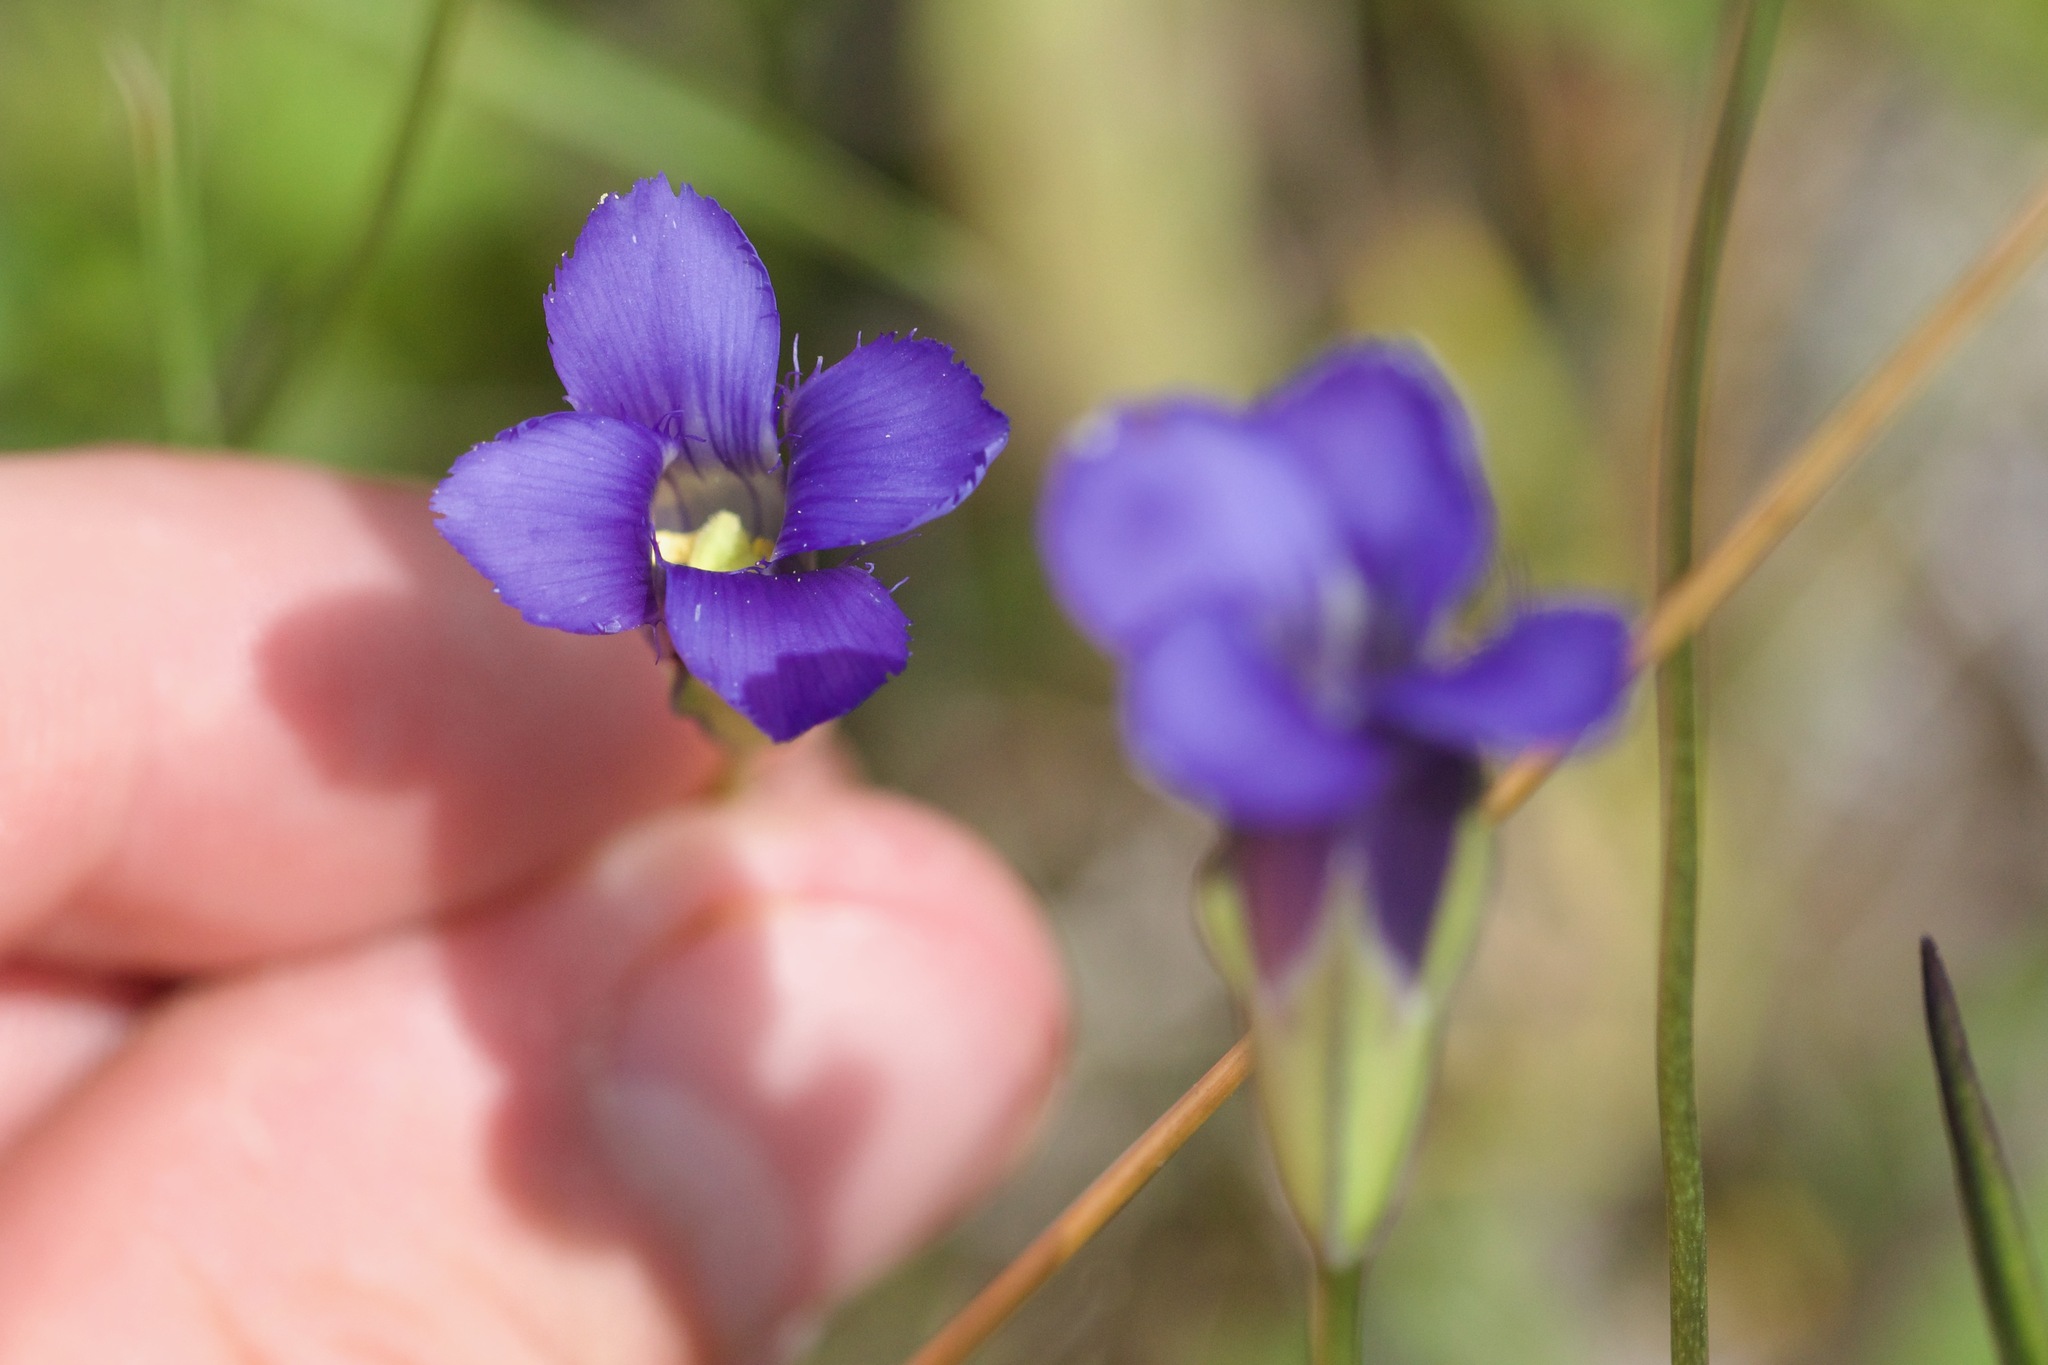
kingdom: Plantae
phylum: Tracheophyta
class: Magnoliopsida
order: Gentianales
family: Gentianaceae
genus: Gentianopsis
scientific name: Gentianopsis virgata
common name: Lesser fringed-gentian
